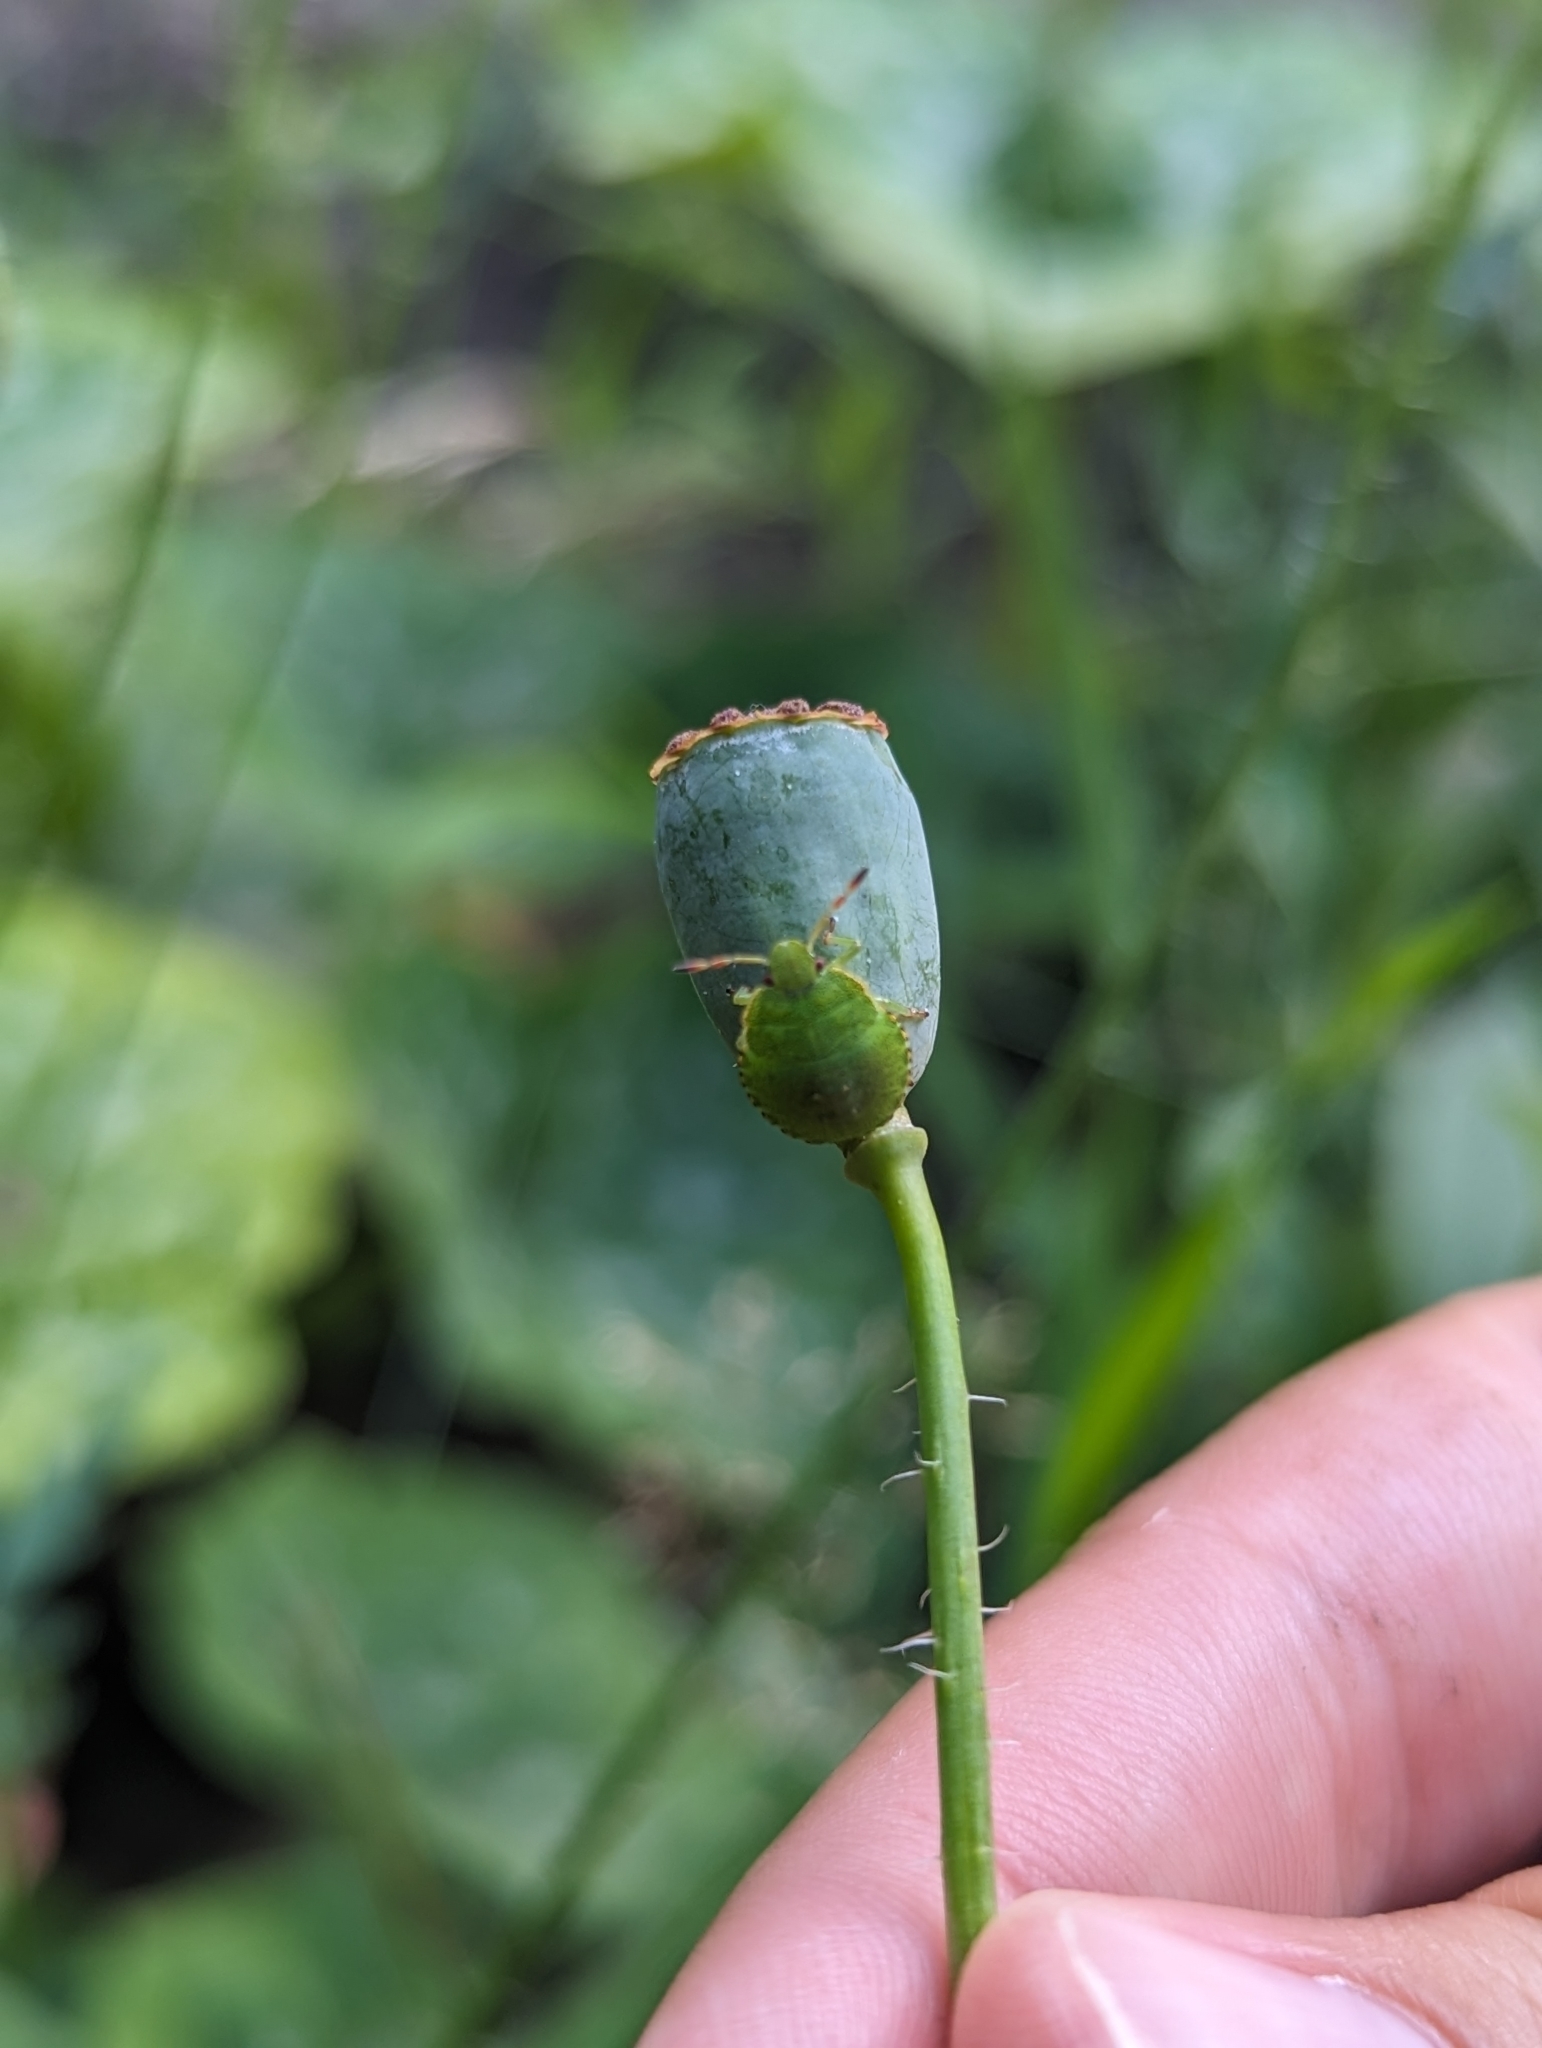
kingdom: Animalia
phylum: Arthropoda
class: Insecta
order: Hemiptera
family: Pentatomidae
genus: Palomena
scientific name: Palomena prasina
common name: Green shieldbug
